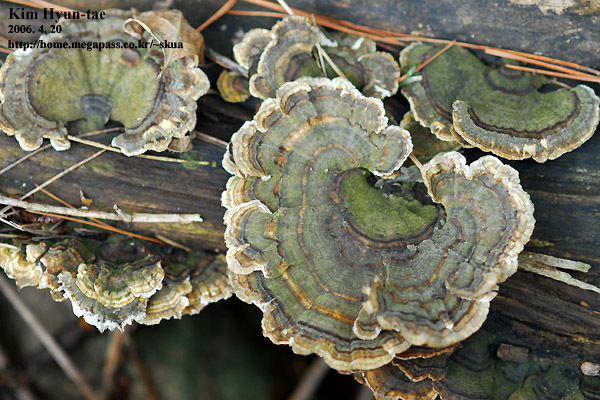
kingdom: Fungi
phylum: Basidiomycota
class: Agaricomycetes
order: Polyporales
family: Polyporaceae
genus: Trametes
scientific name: Trametes versicolor
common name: Turkeytail
